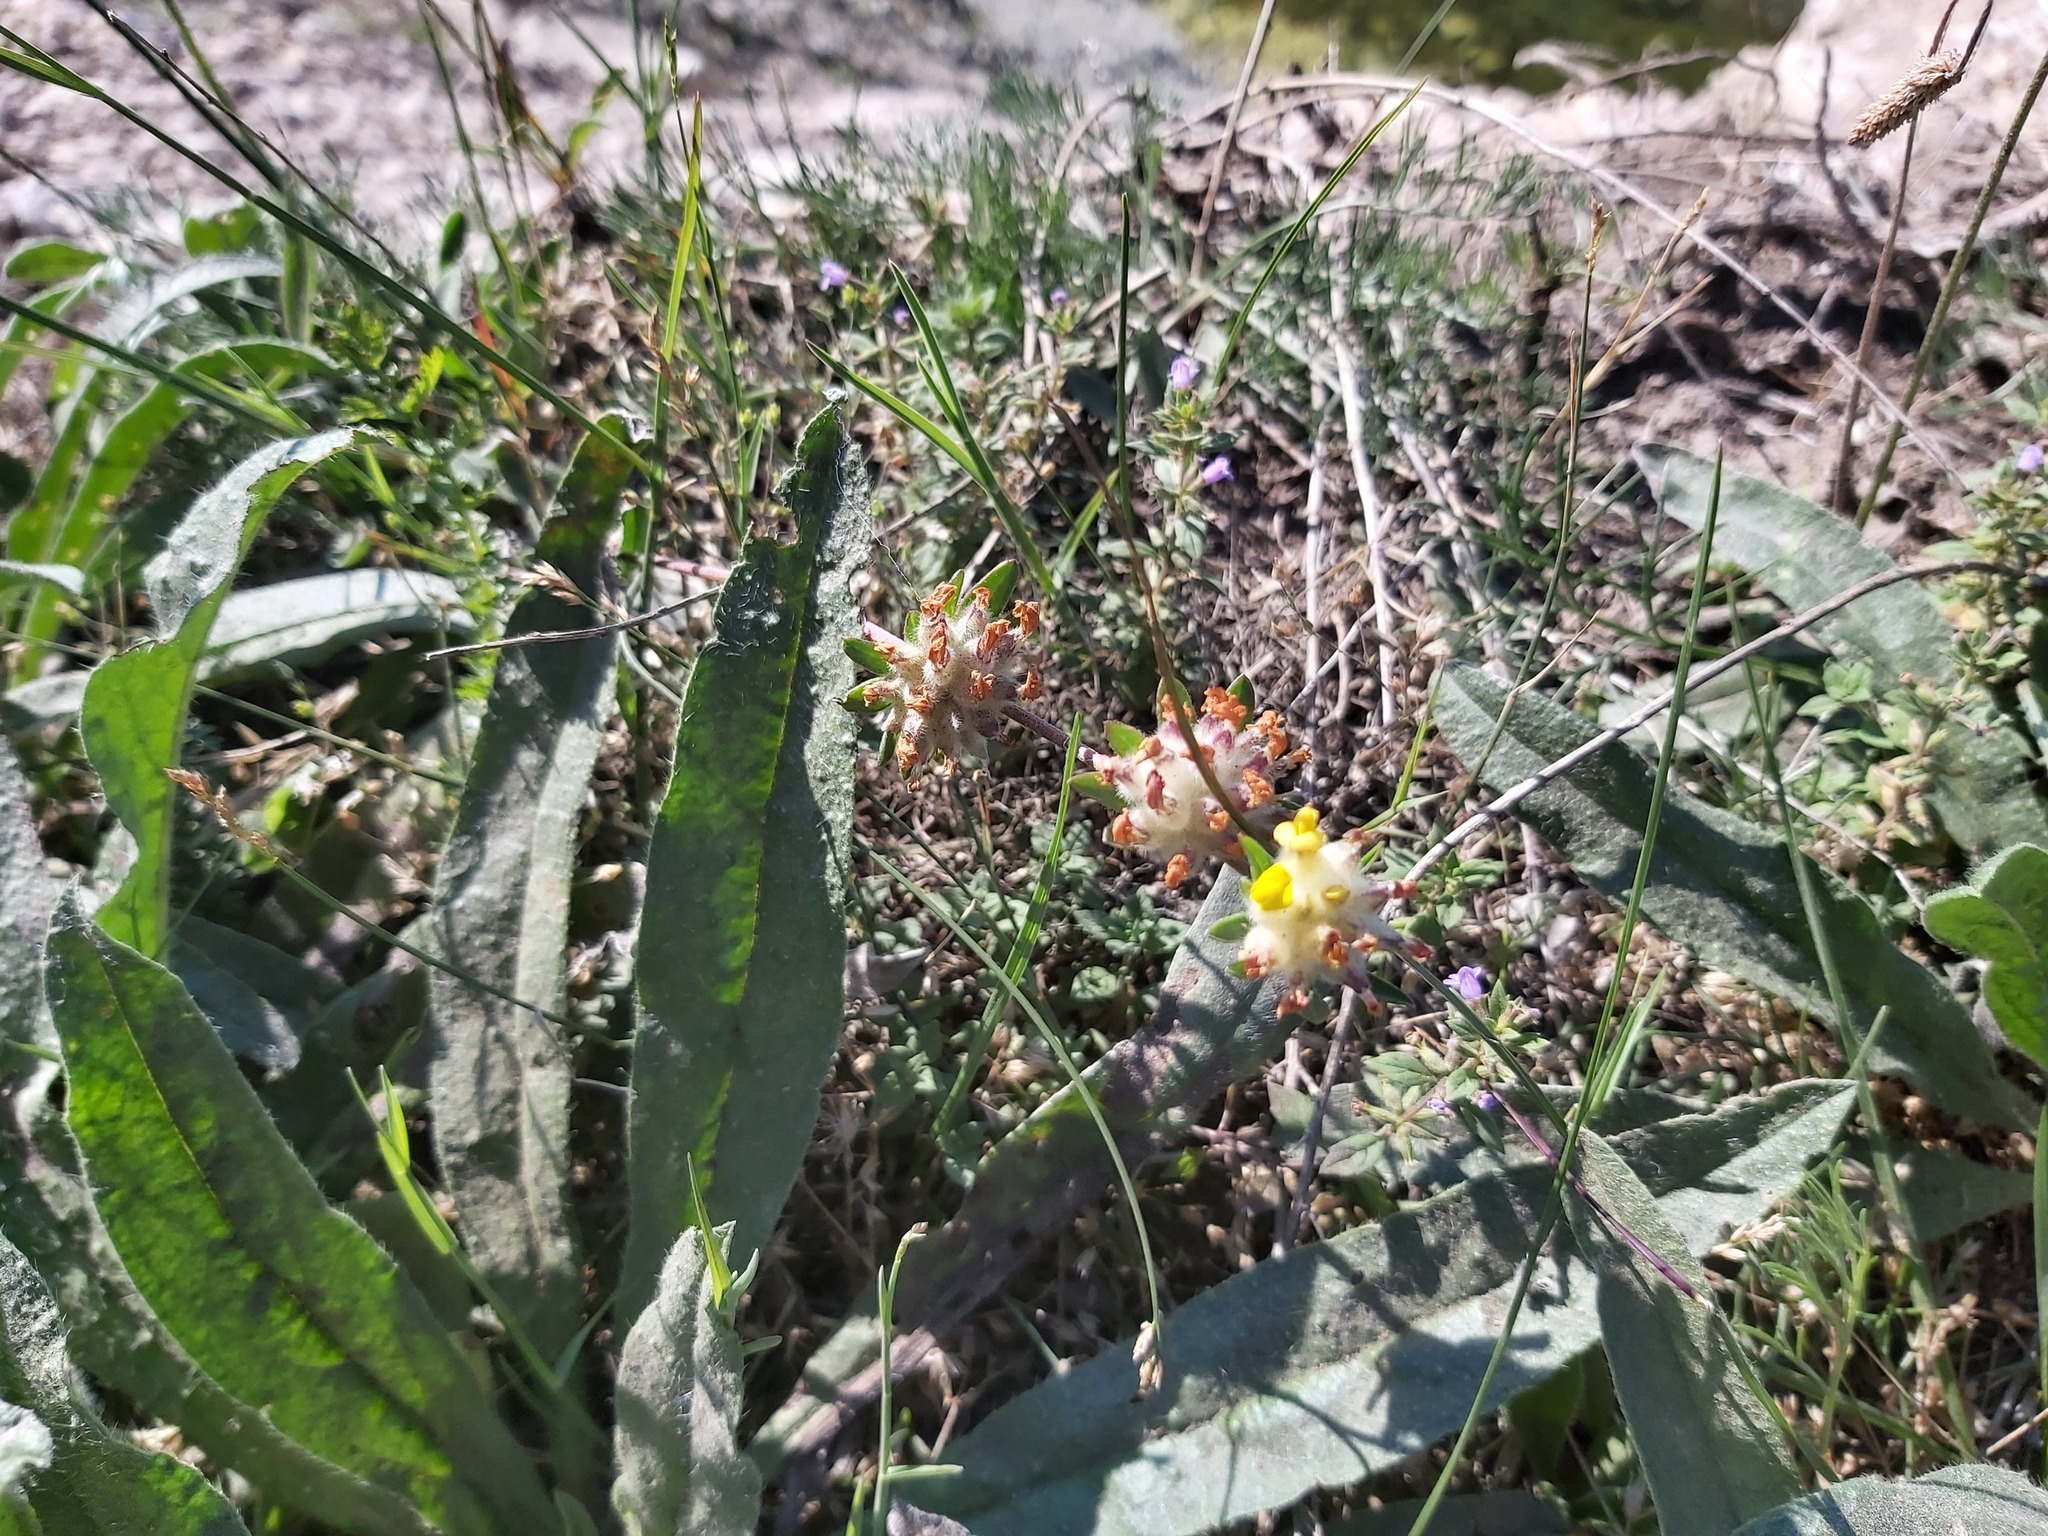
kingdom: Plantae
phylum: Tracheophyta
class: Magnoliopsida
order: Fabales
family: Fabaceae
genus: Anthyllis
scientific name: Anthyllis vulneraria
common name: Kidney vetch
